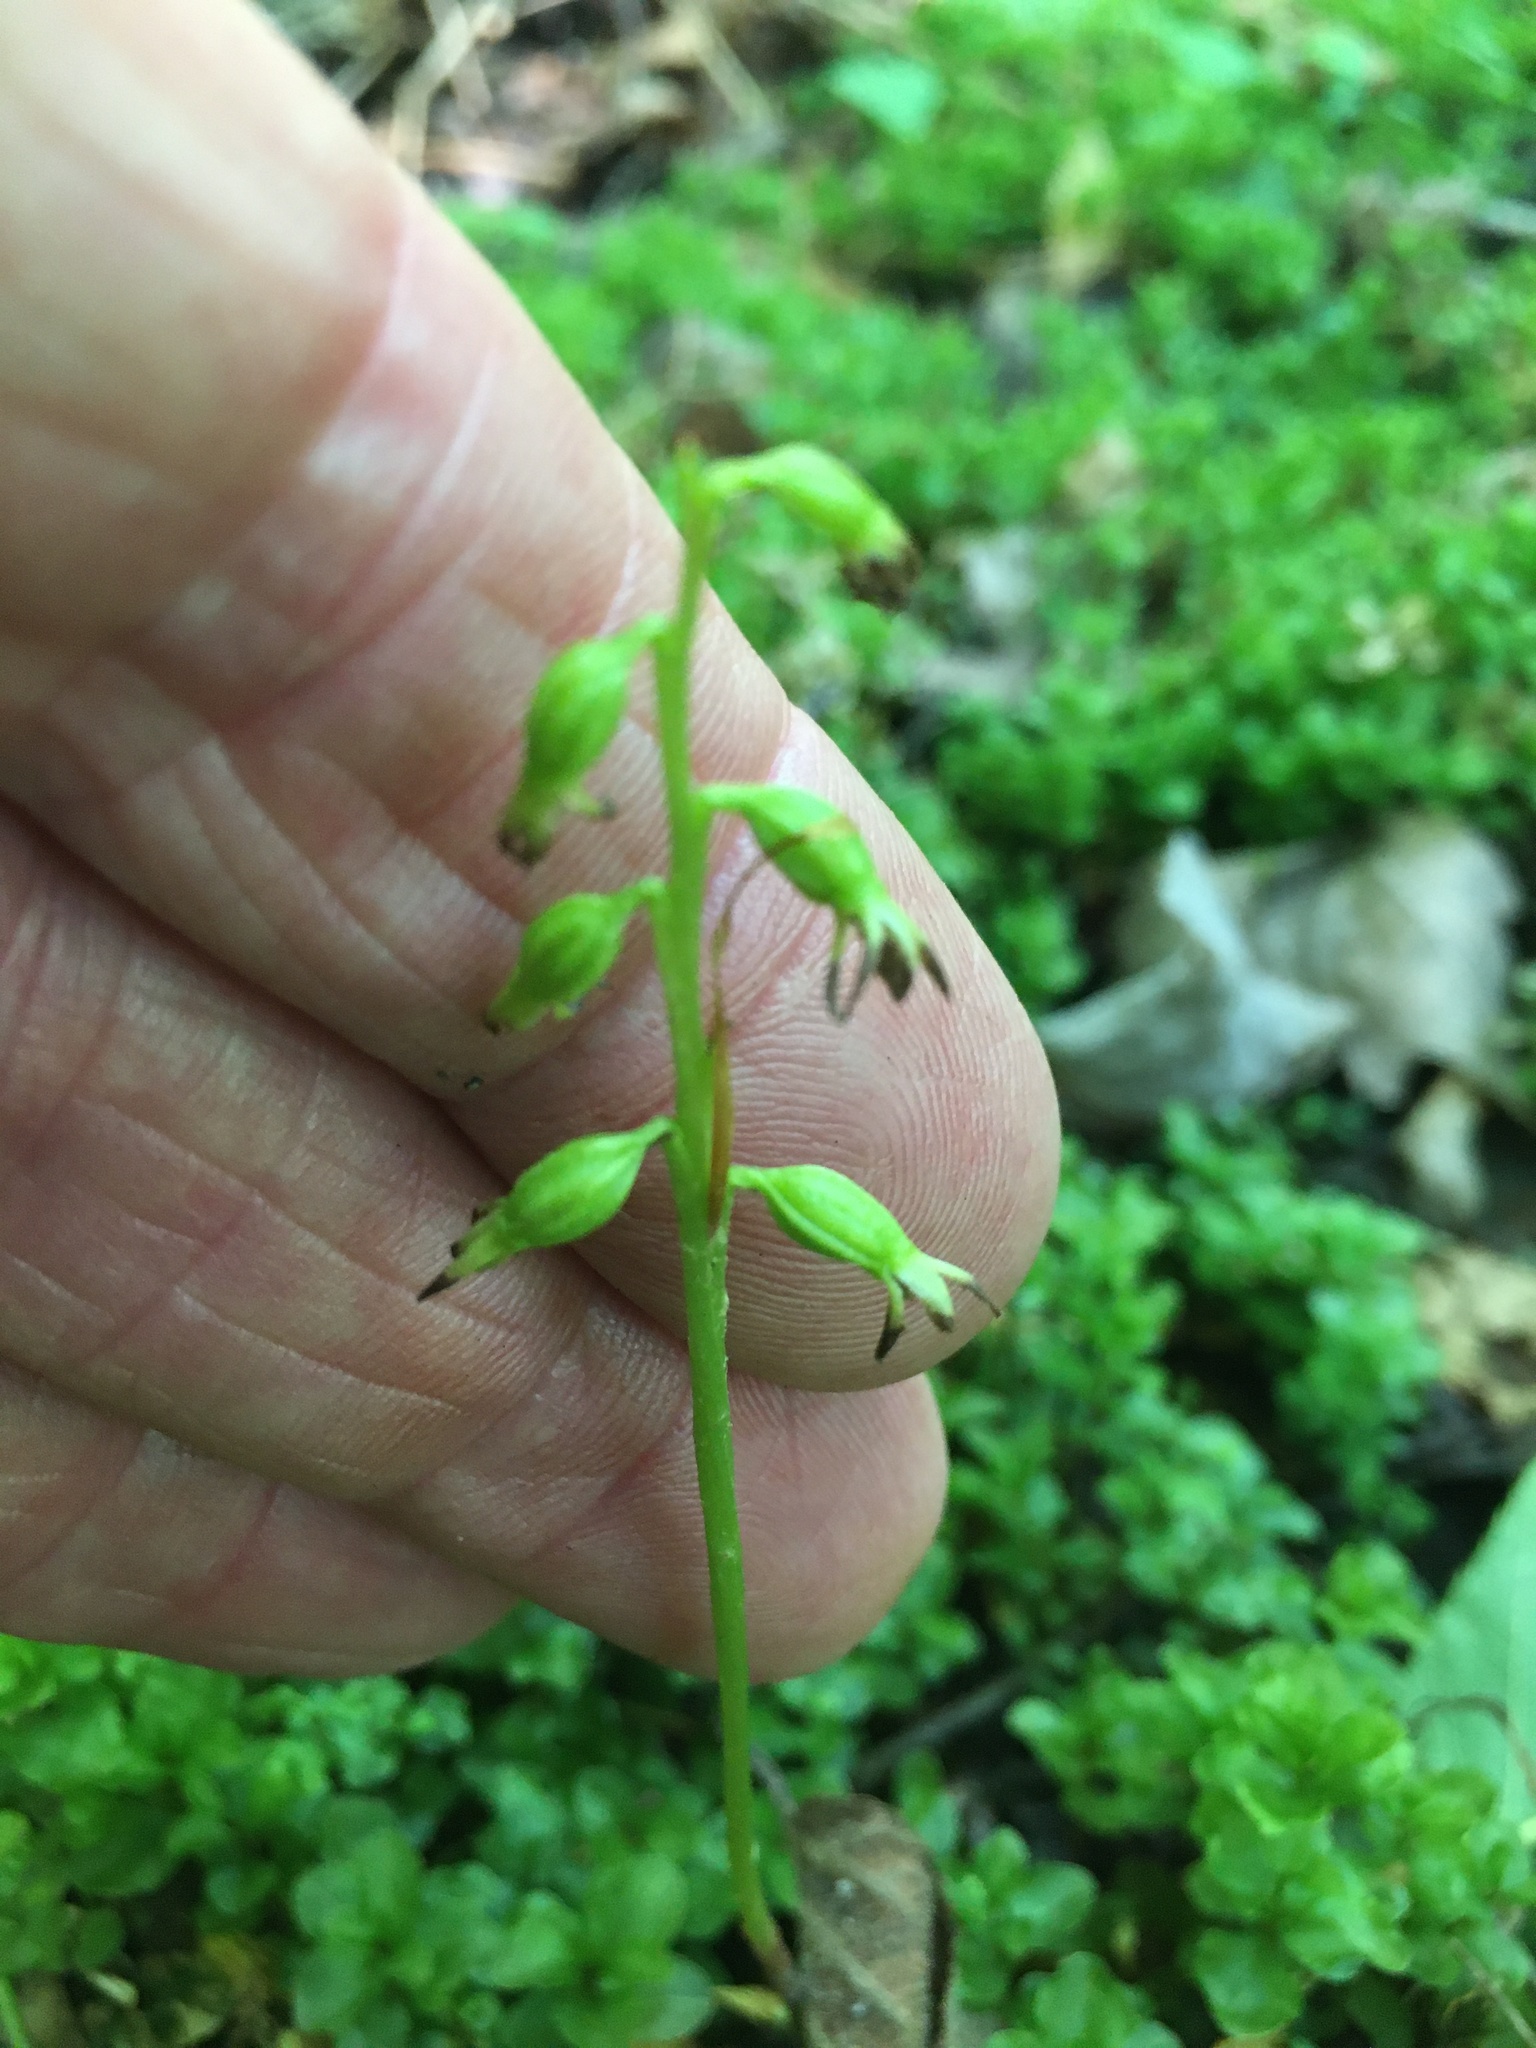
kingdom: Plantae
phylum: Tracheophyta
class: Liliopsida
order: Asparagales
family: Orchidaceae
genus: Corallorhiza
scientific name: Corallorhiza trifida
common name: Yellow coralroot
